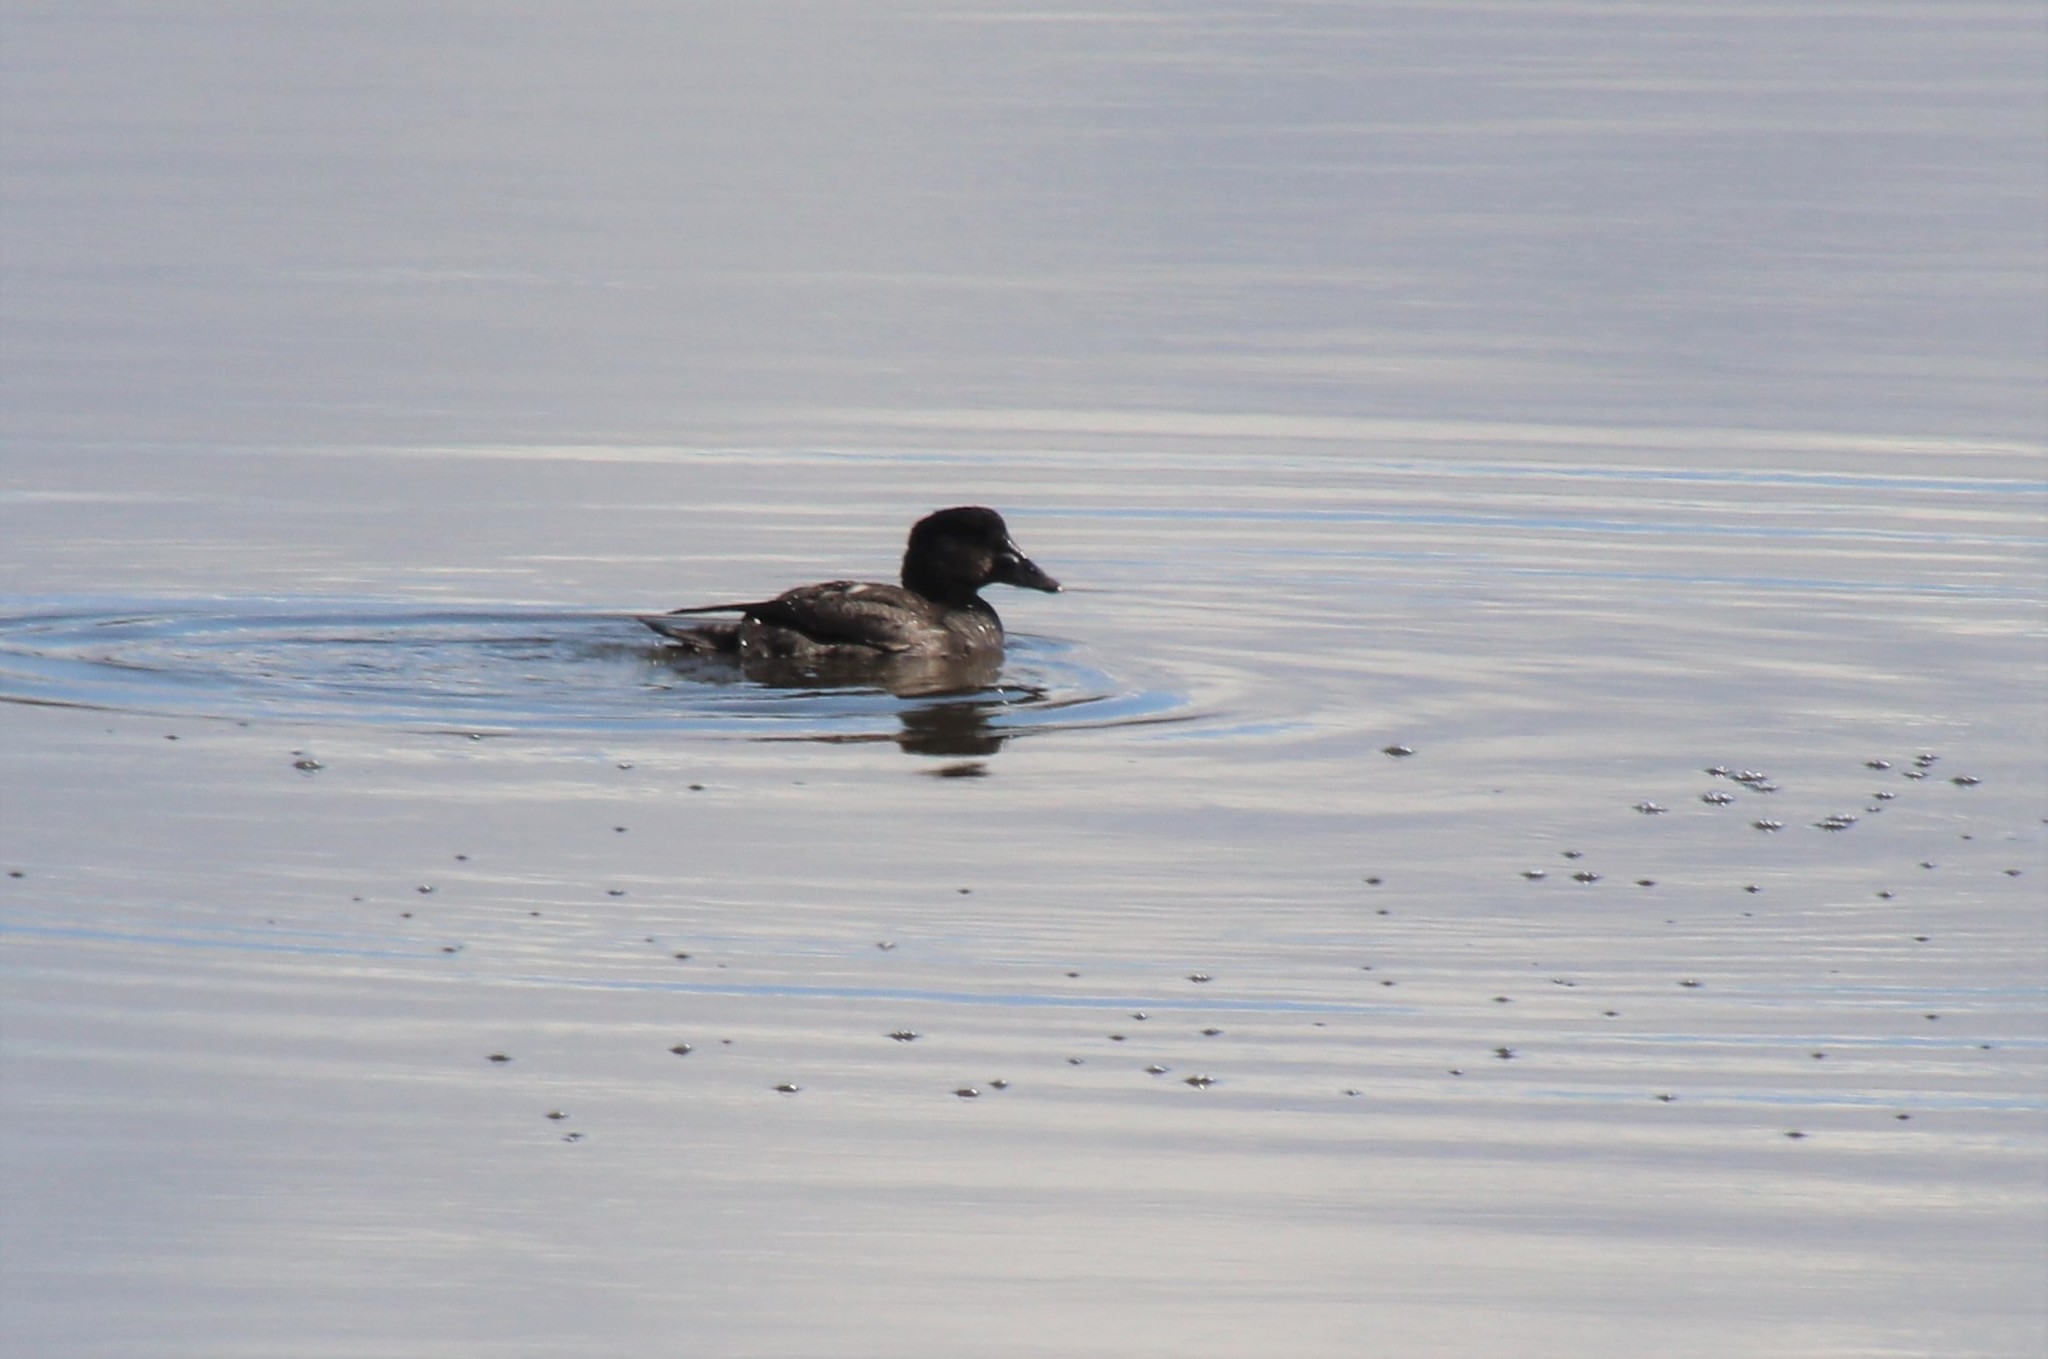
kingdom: Animalia
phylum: Chordata
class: Aves
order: Anseriformes
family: Anatidae
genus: Melanitta
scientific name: Melanitta perspicillata
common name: Surf scoter
